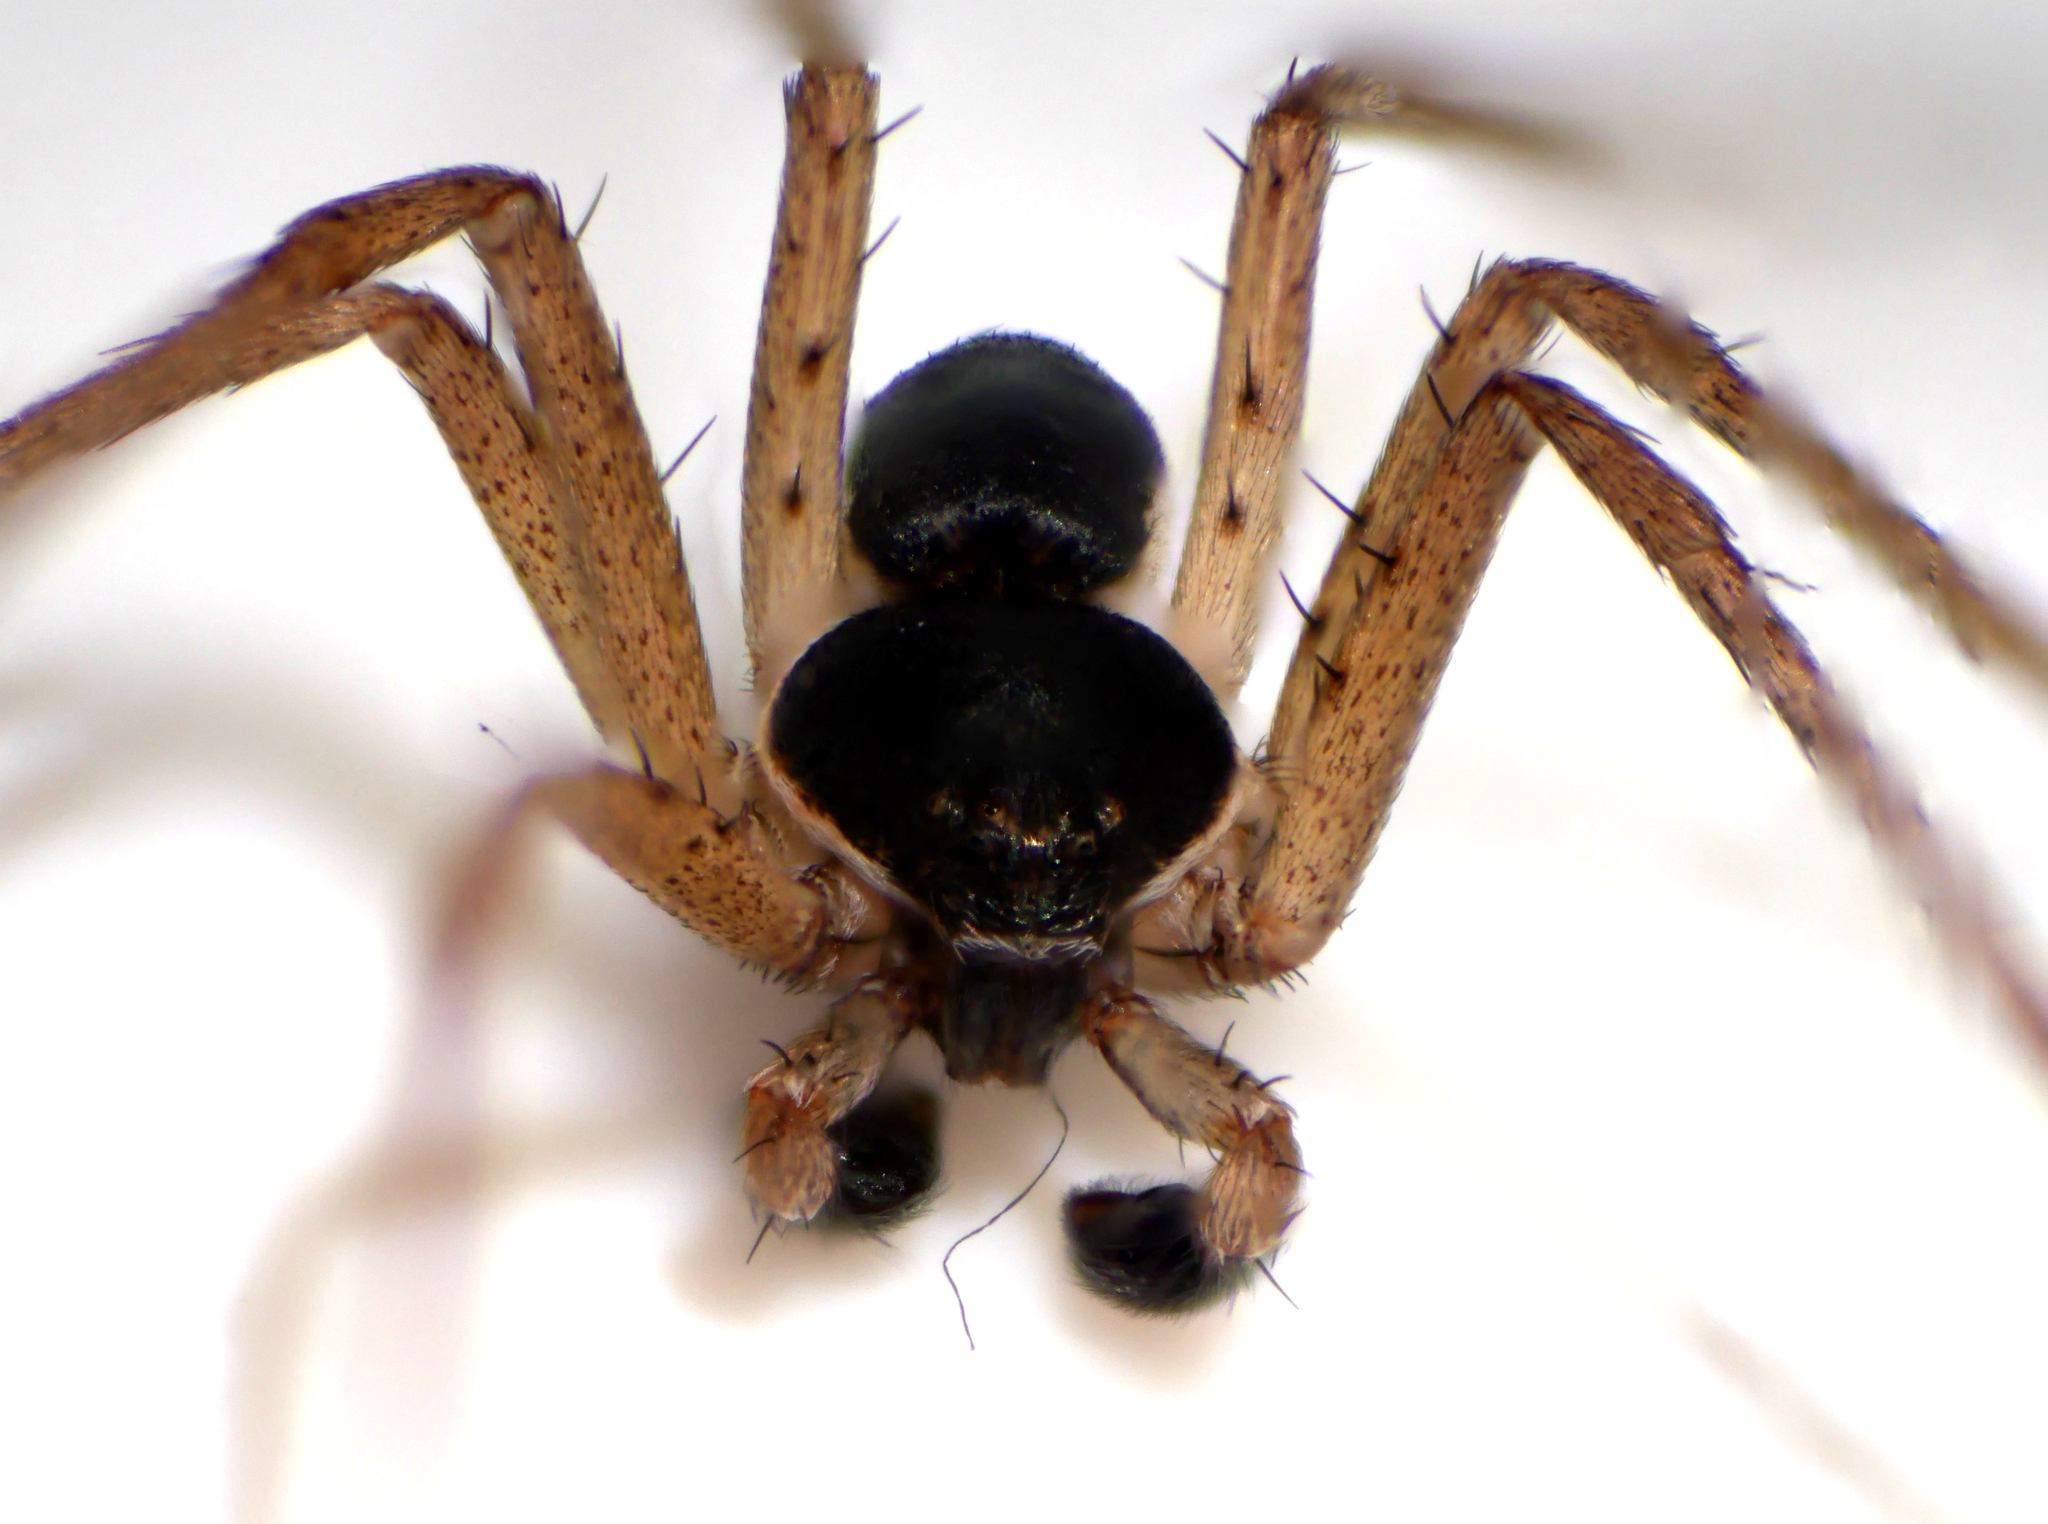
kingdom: Animalia
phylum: Arthropoda
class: Arachnida
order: Araneae
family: Philodromidae
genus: Philodromus
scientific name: Philodromus dispar
